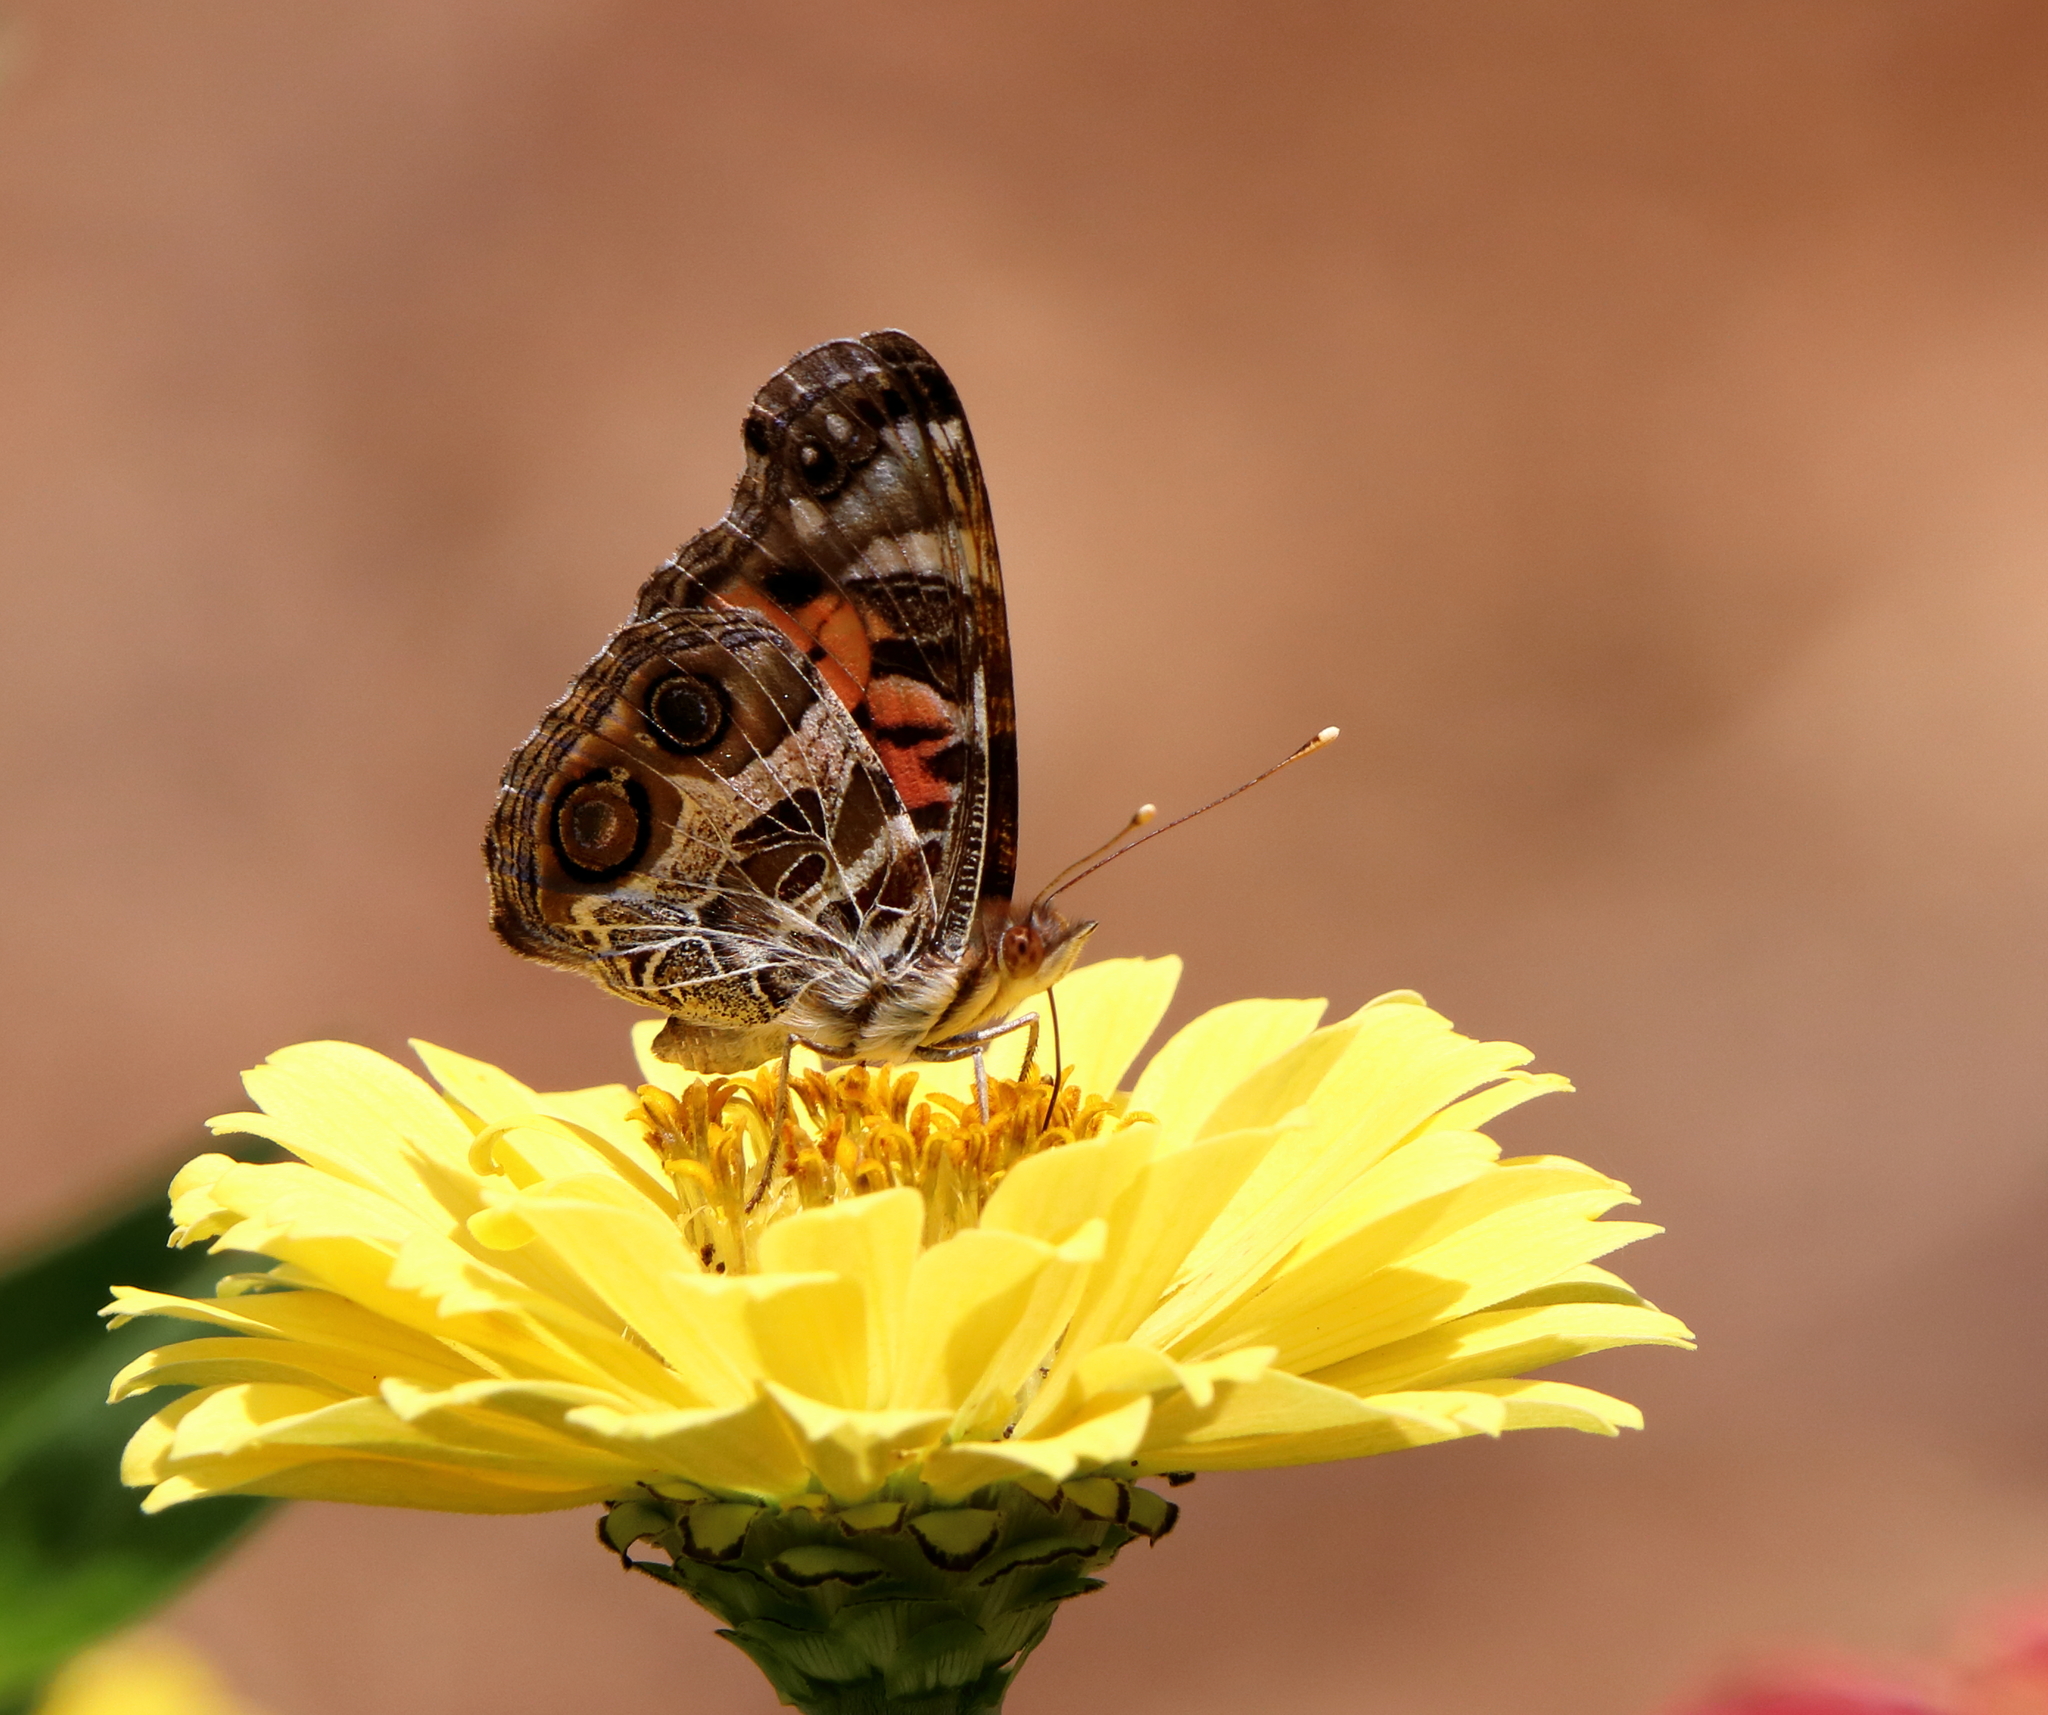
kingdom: Animalia
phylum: Arthropoda
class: Insecta
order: Lepidoptera
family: Nymphalidae
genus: Vanessa
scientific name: Vanessa virginiensis
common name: American lady
